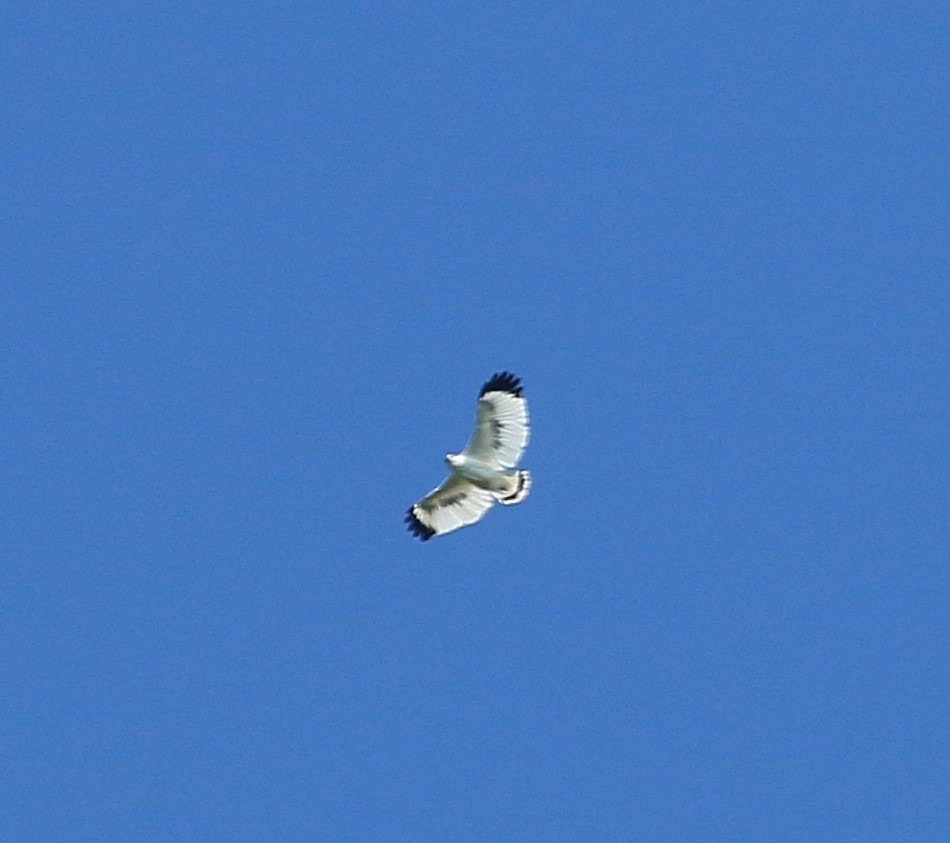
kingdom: Animalia
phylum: Chordata
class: Aves
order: Accipitriformes
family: Accipitridae
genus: Leucopternis
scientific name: Leucopternis albicollis
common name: White hawk
